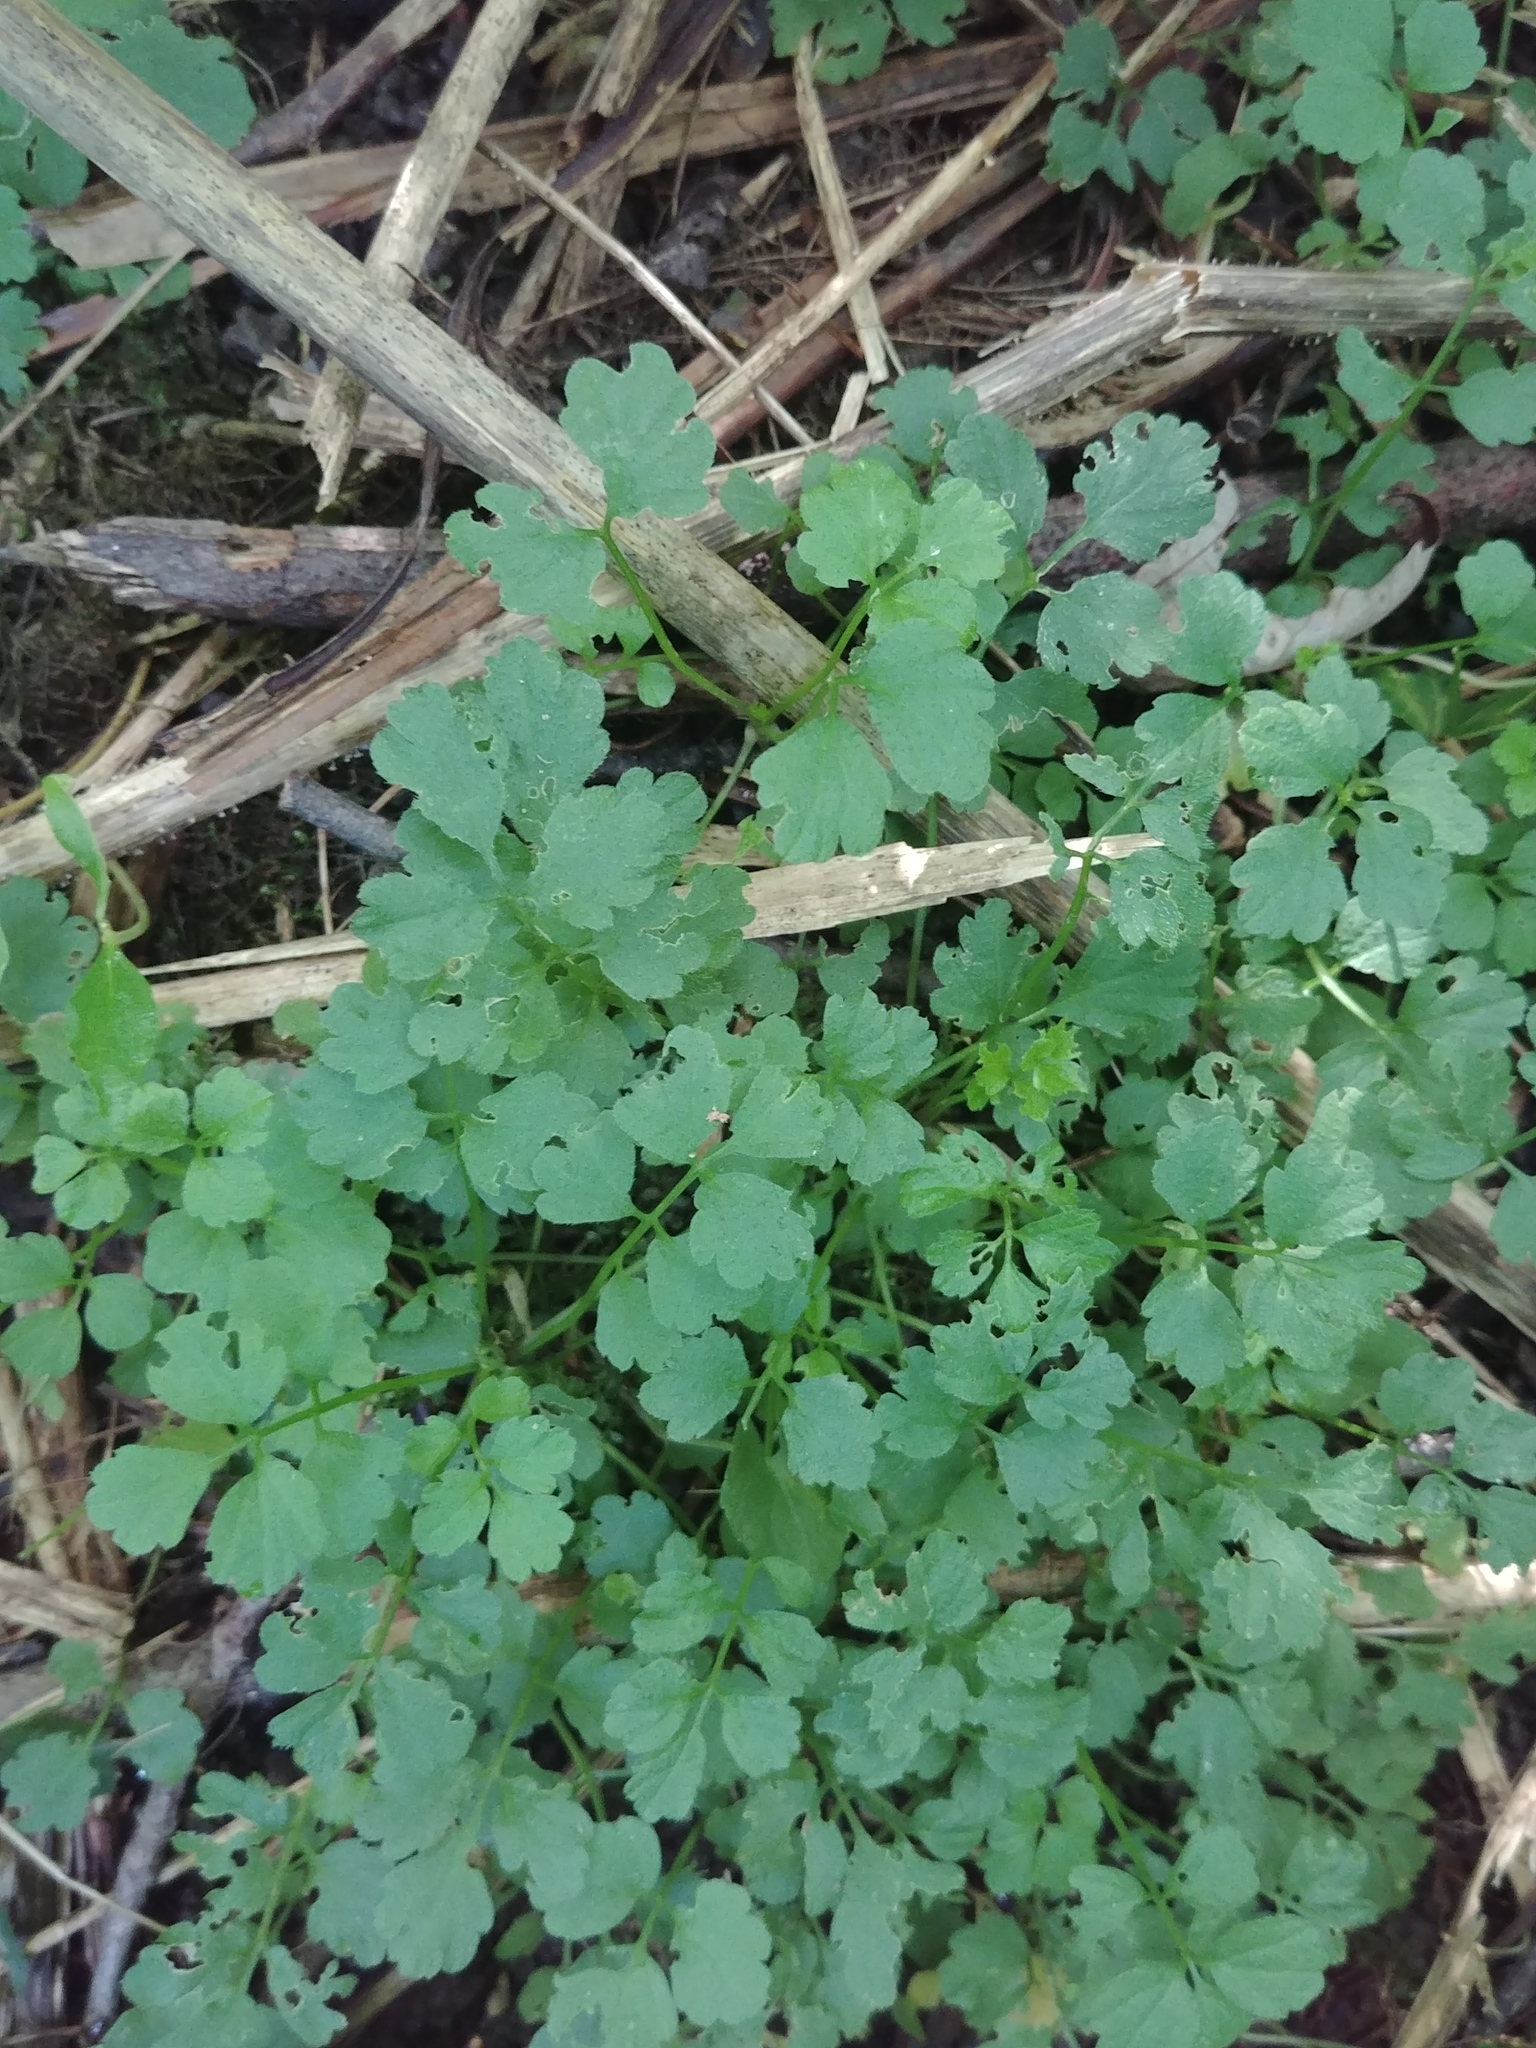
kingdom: Plantae
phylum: Tracheophyta
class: Magnoliopsida
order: Brassicales
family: Brassicaceae
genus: Cardamine
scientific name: Cardamine impatiens
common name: Narrow-leaved bitter-cress
